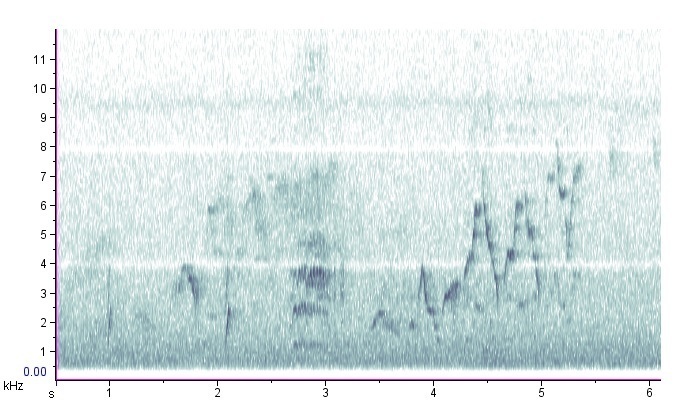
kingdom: Animalia
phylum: Chordata
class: Aves
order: Passeriformes
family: Turdidae
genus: Catharus
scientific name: Catharus ustulatus
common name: Swainson's thrush
